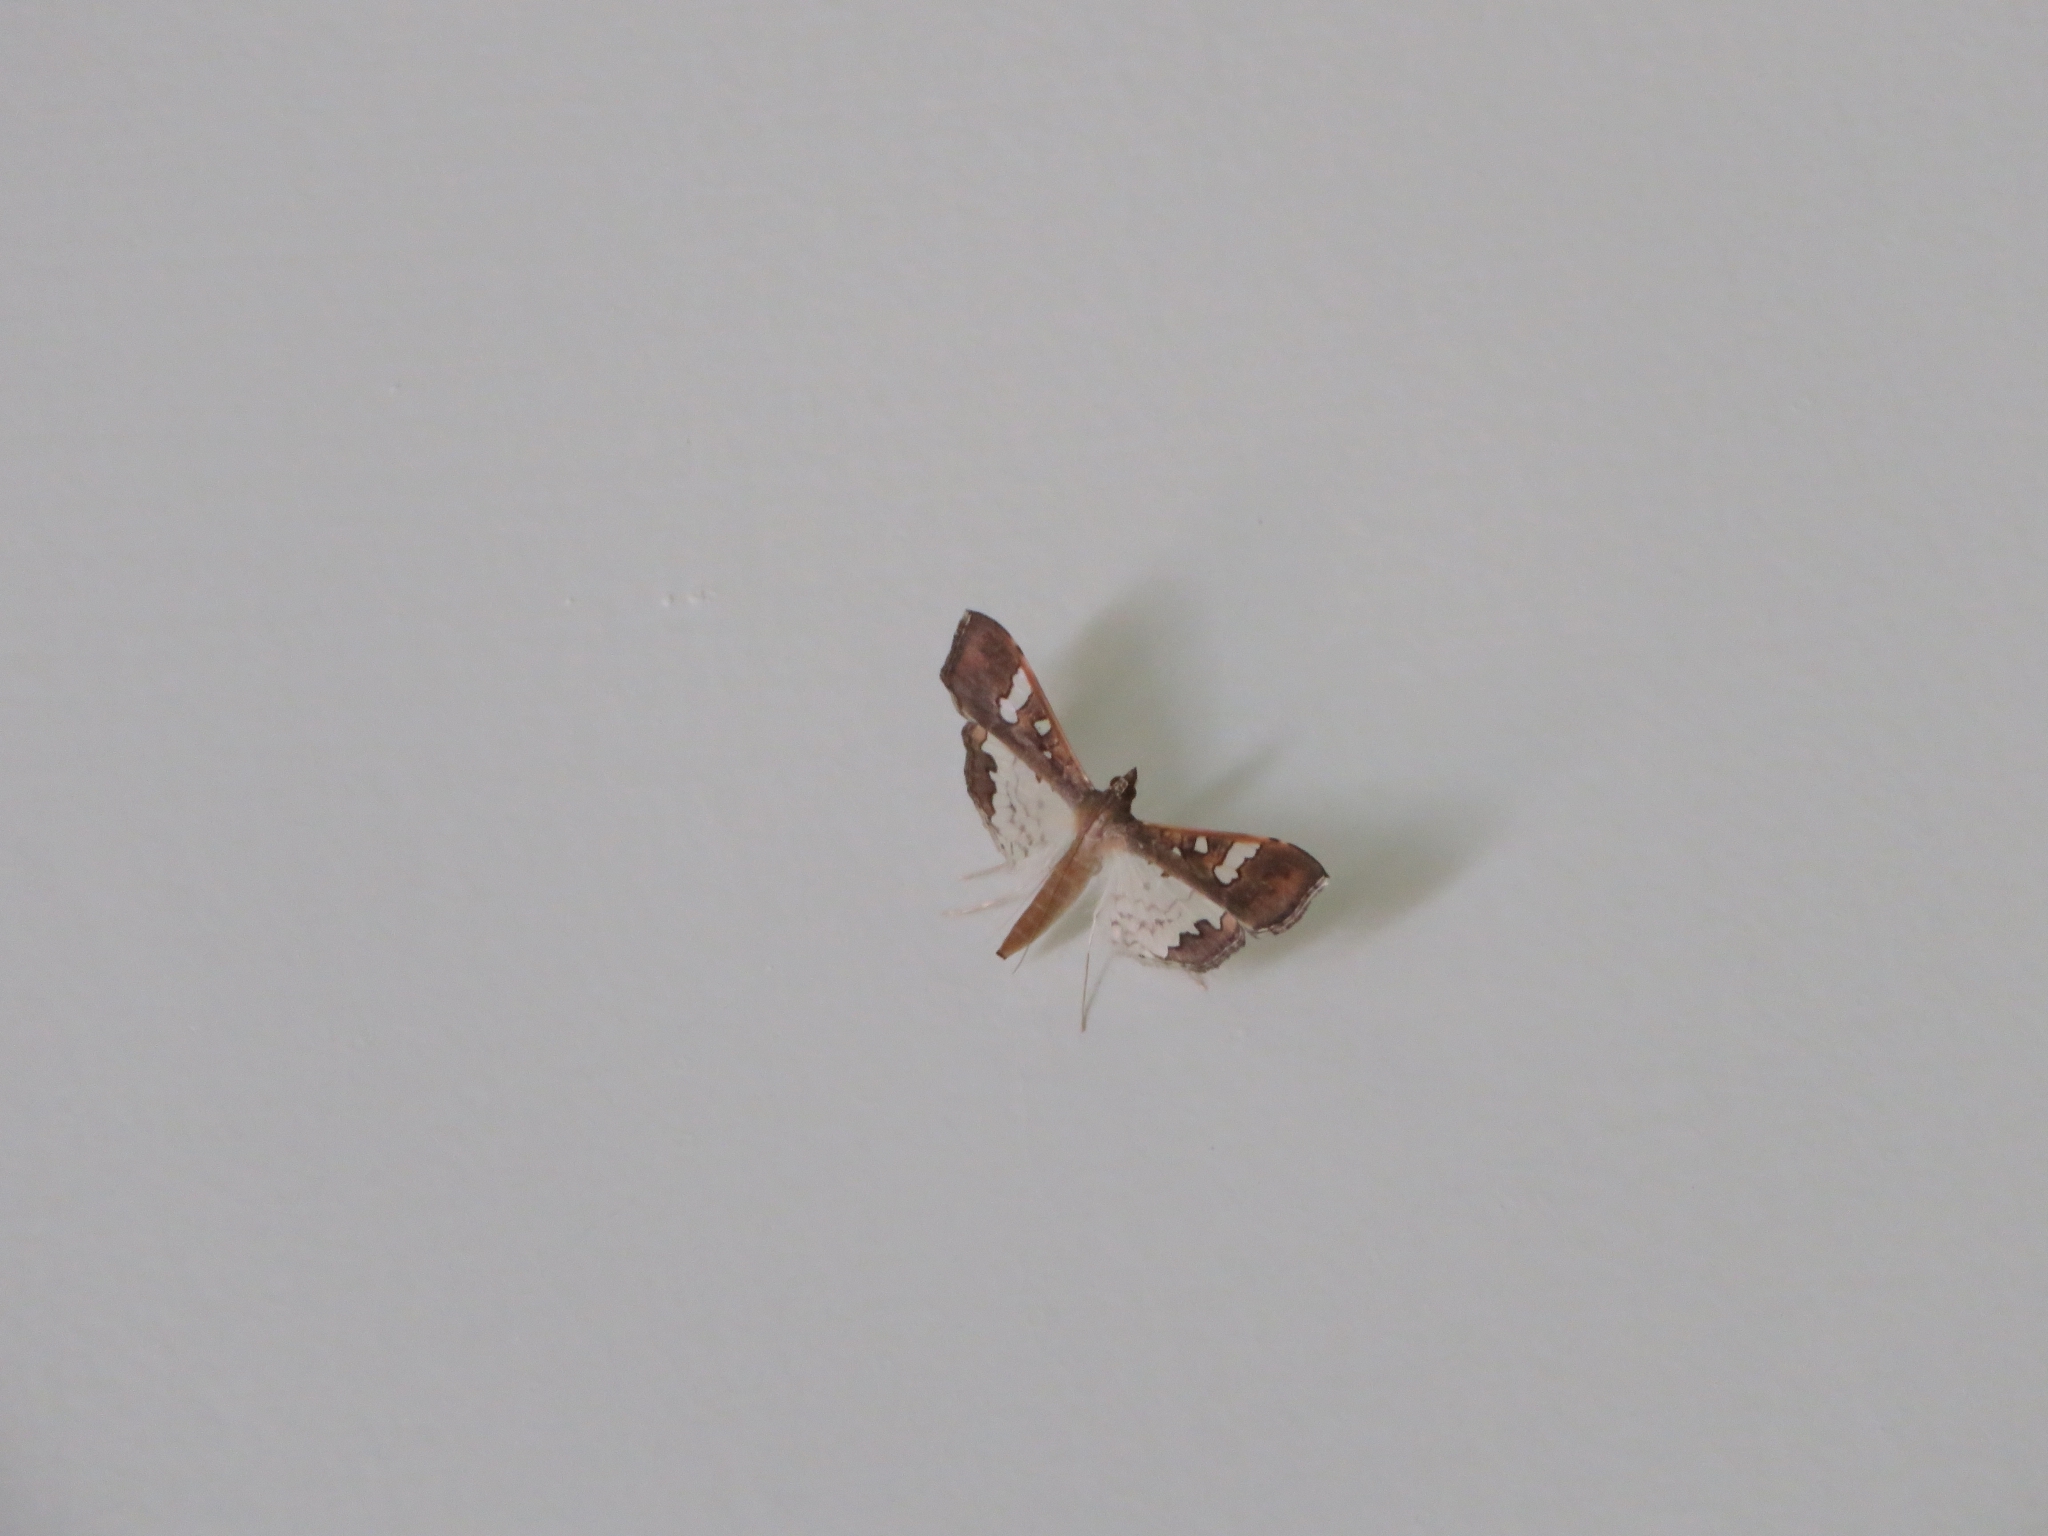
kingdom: Animalia
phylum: Arthropoda
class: Insecta
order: Lepidoptera
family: Crambidae
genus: Maruca
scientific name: Maruca vitrata
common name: Maruca pod borer
